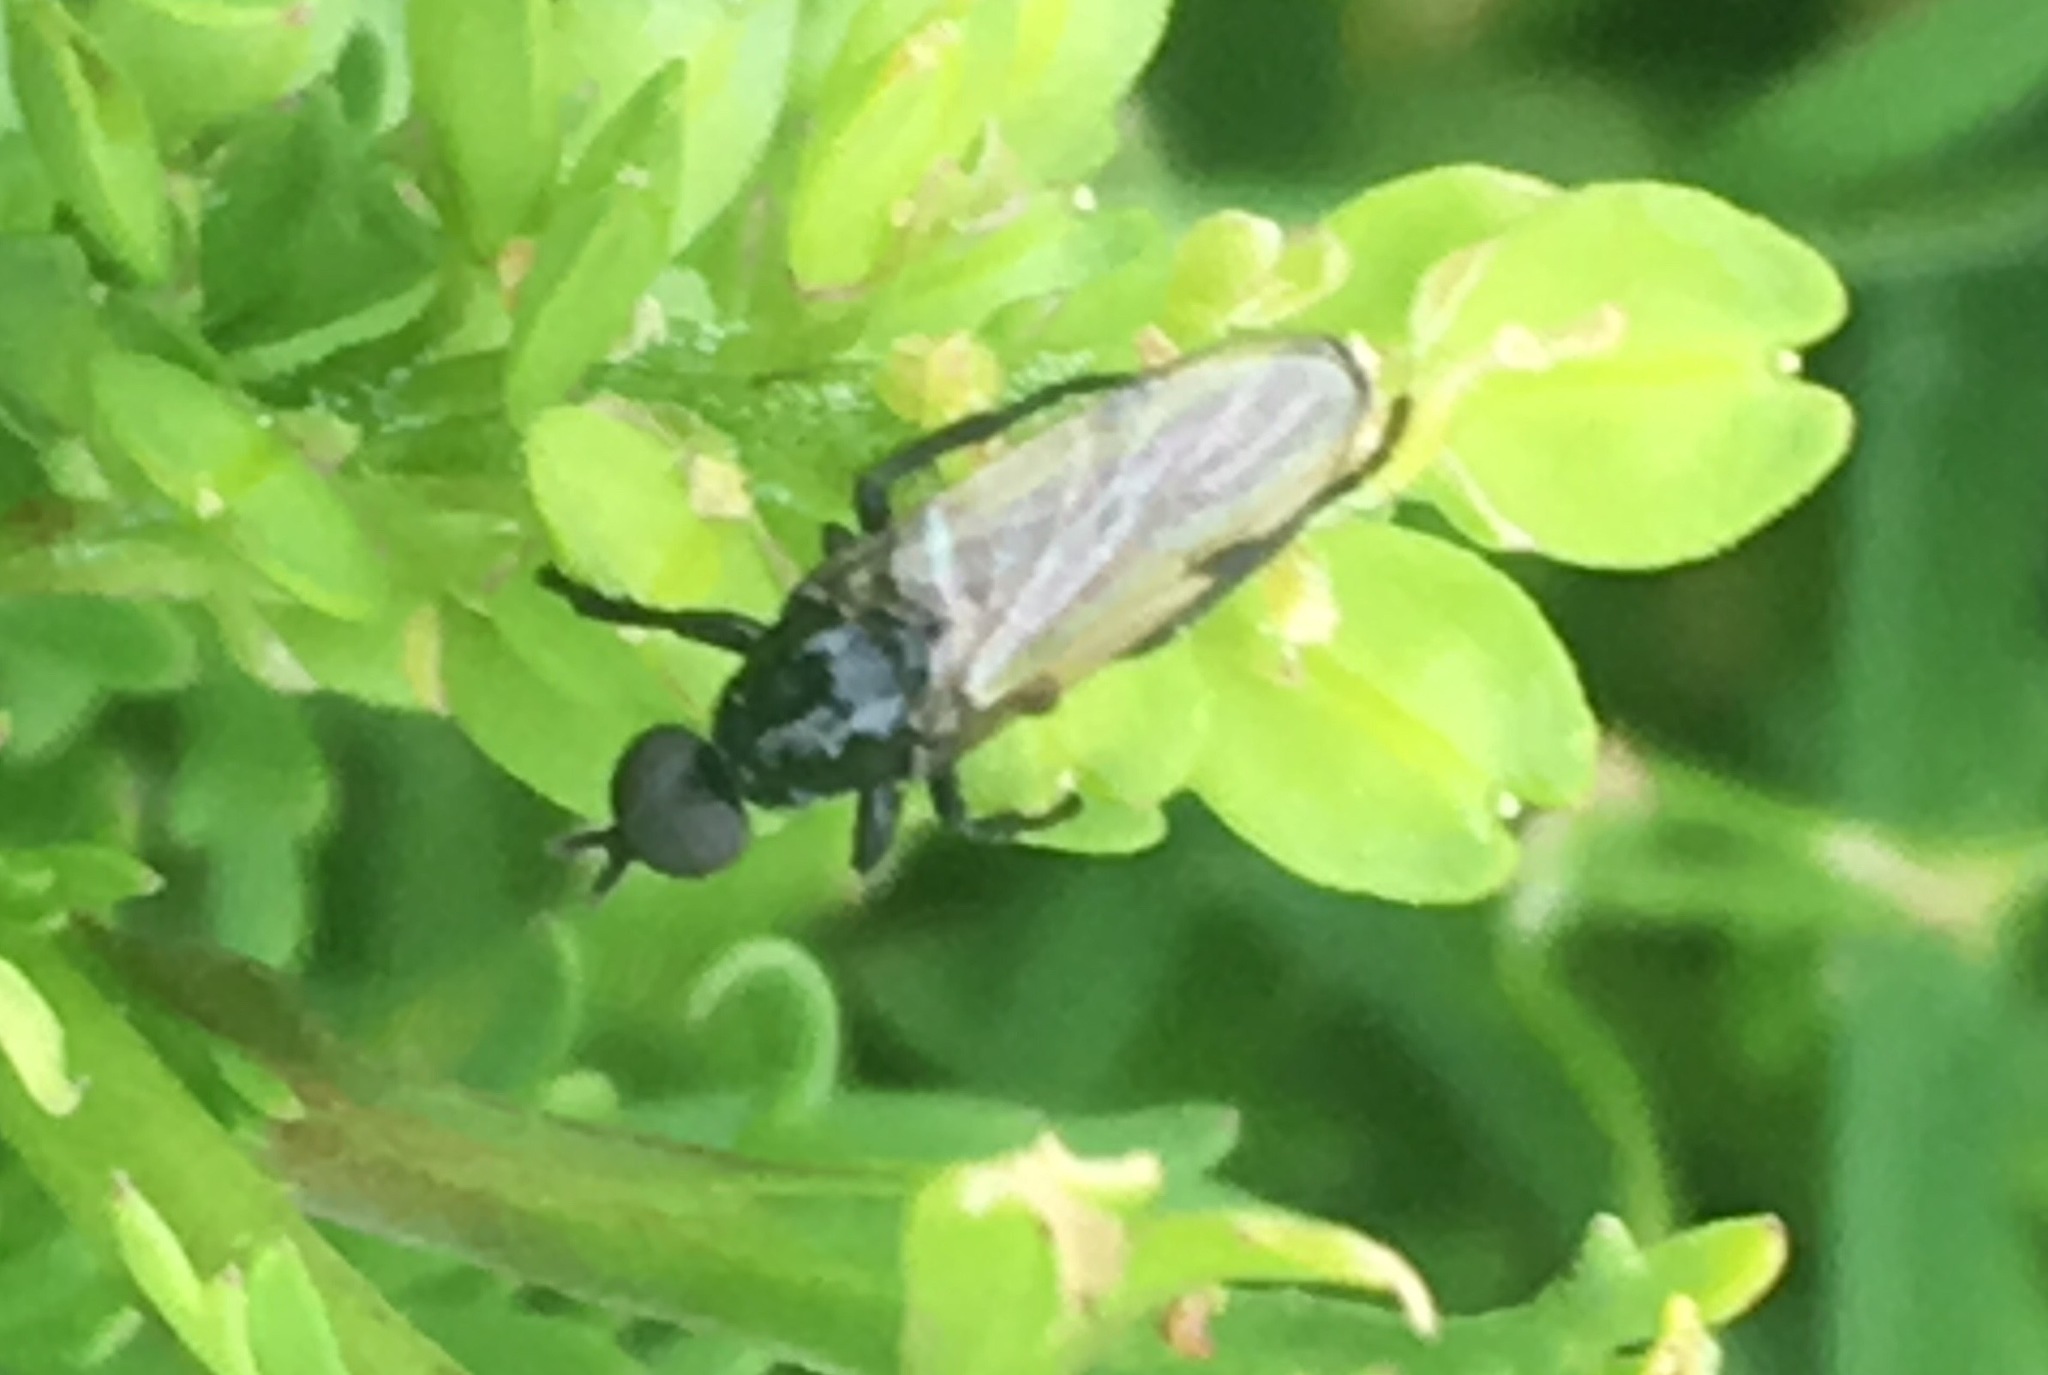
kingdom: Animalia
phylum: Arthropoda
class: Insecta
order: Diptera
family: Bibionidae
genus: Dilophus
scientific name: Dilophus
